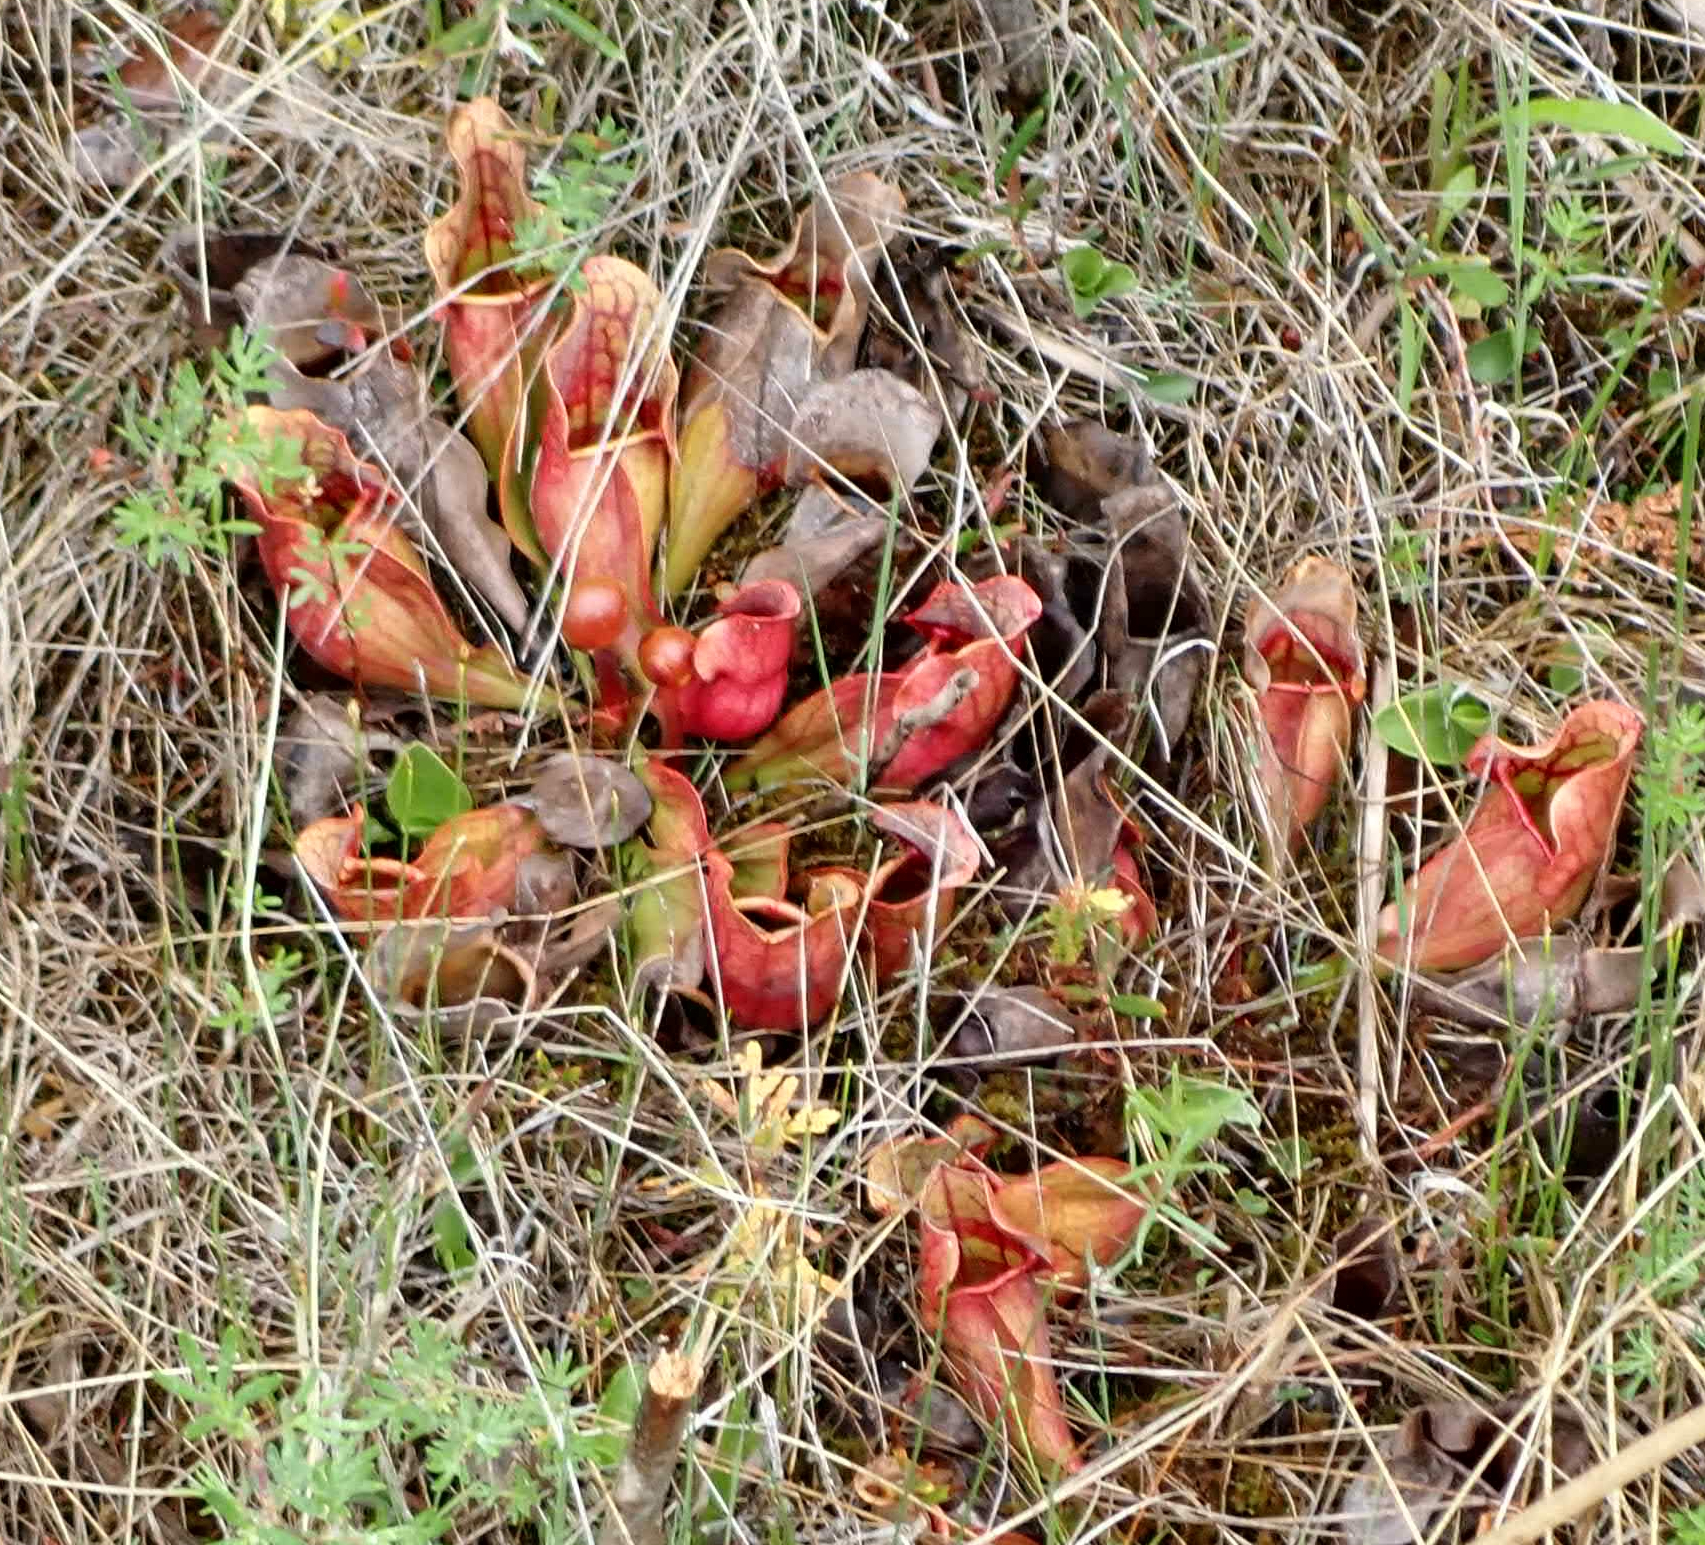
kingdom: Plantae
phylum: Tracheophyta
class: Magnoliopsida
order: Ericales
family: Sarraceniaceae
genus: Sarracenia
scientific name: Sarracenia purpurea
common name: Pitcherplant
